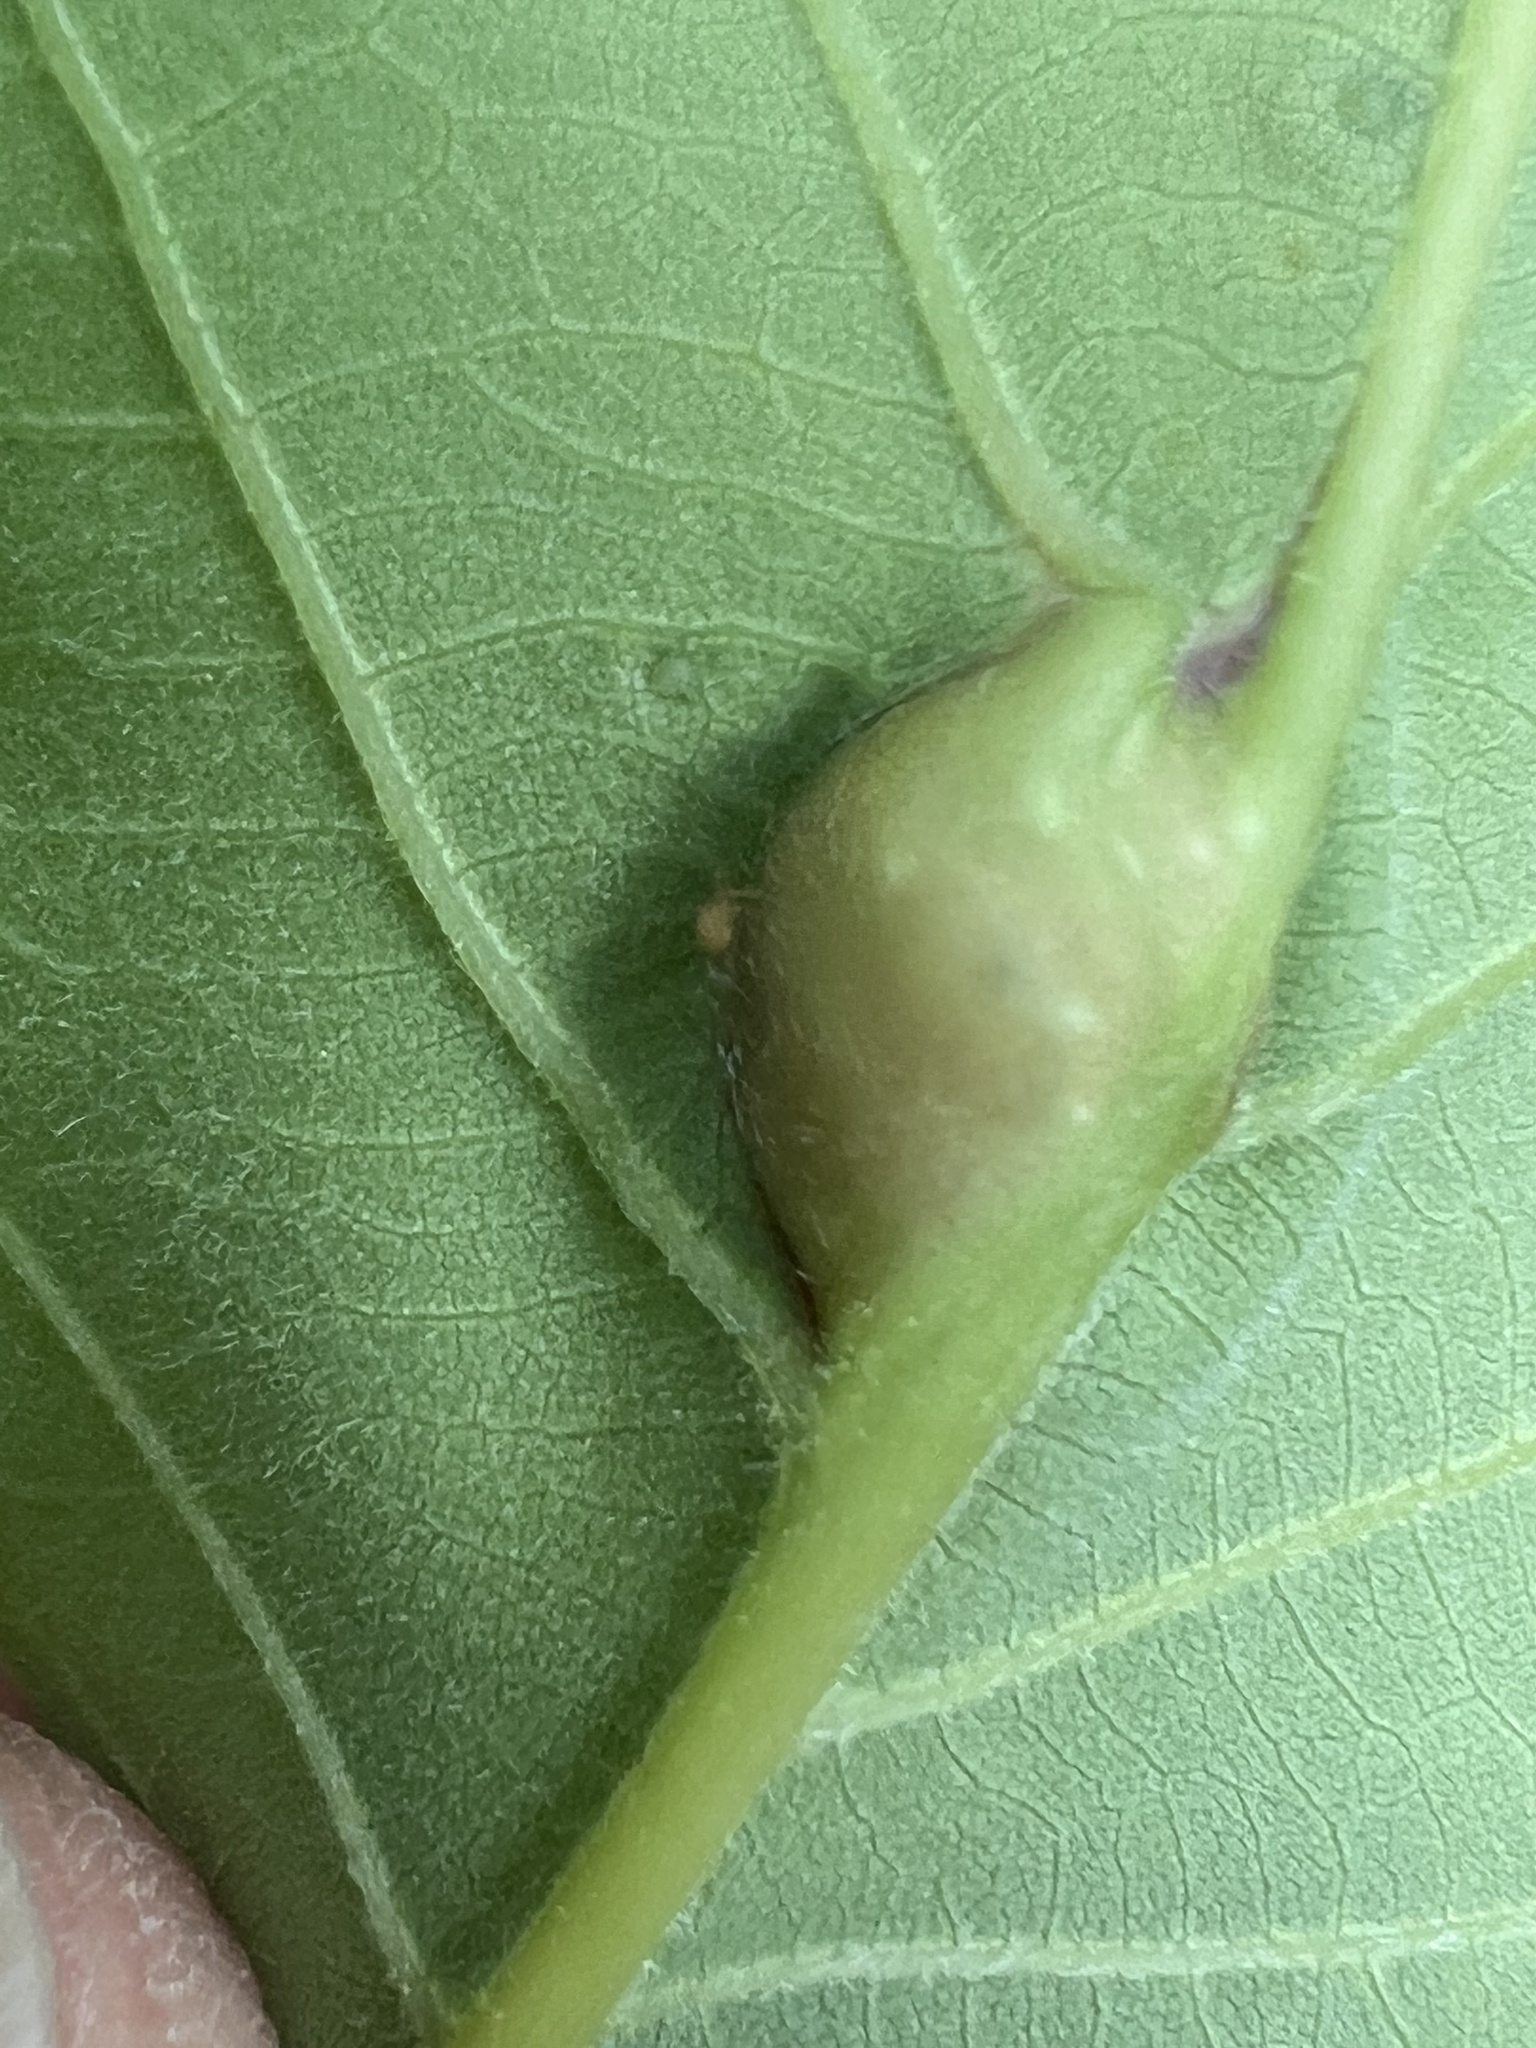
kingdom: Animalia
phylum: Arthropoda
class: Insecta
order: Hymenoptera
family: Cynipidae
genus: Andricus
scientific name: Andricus
